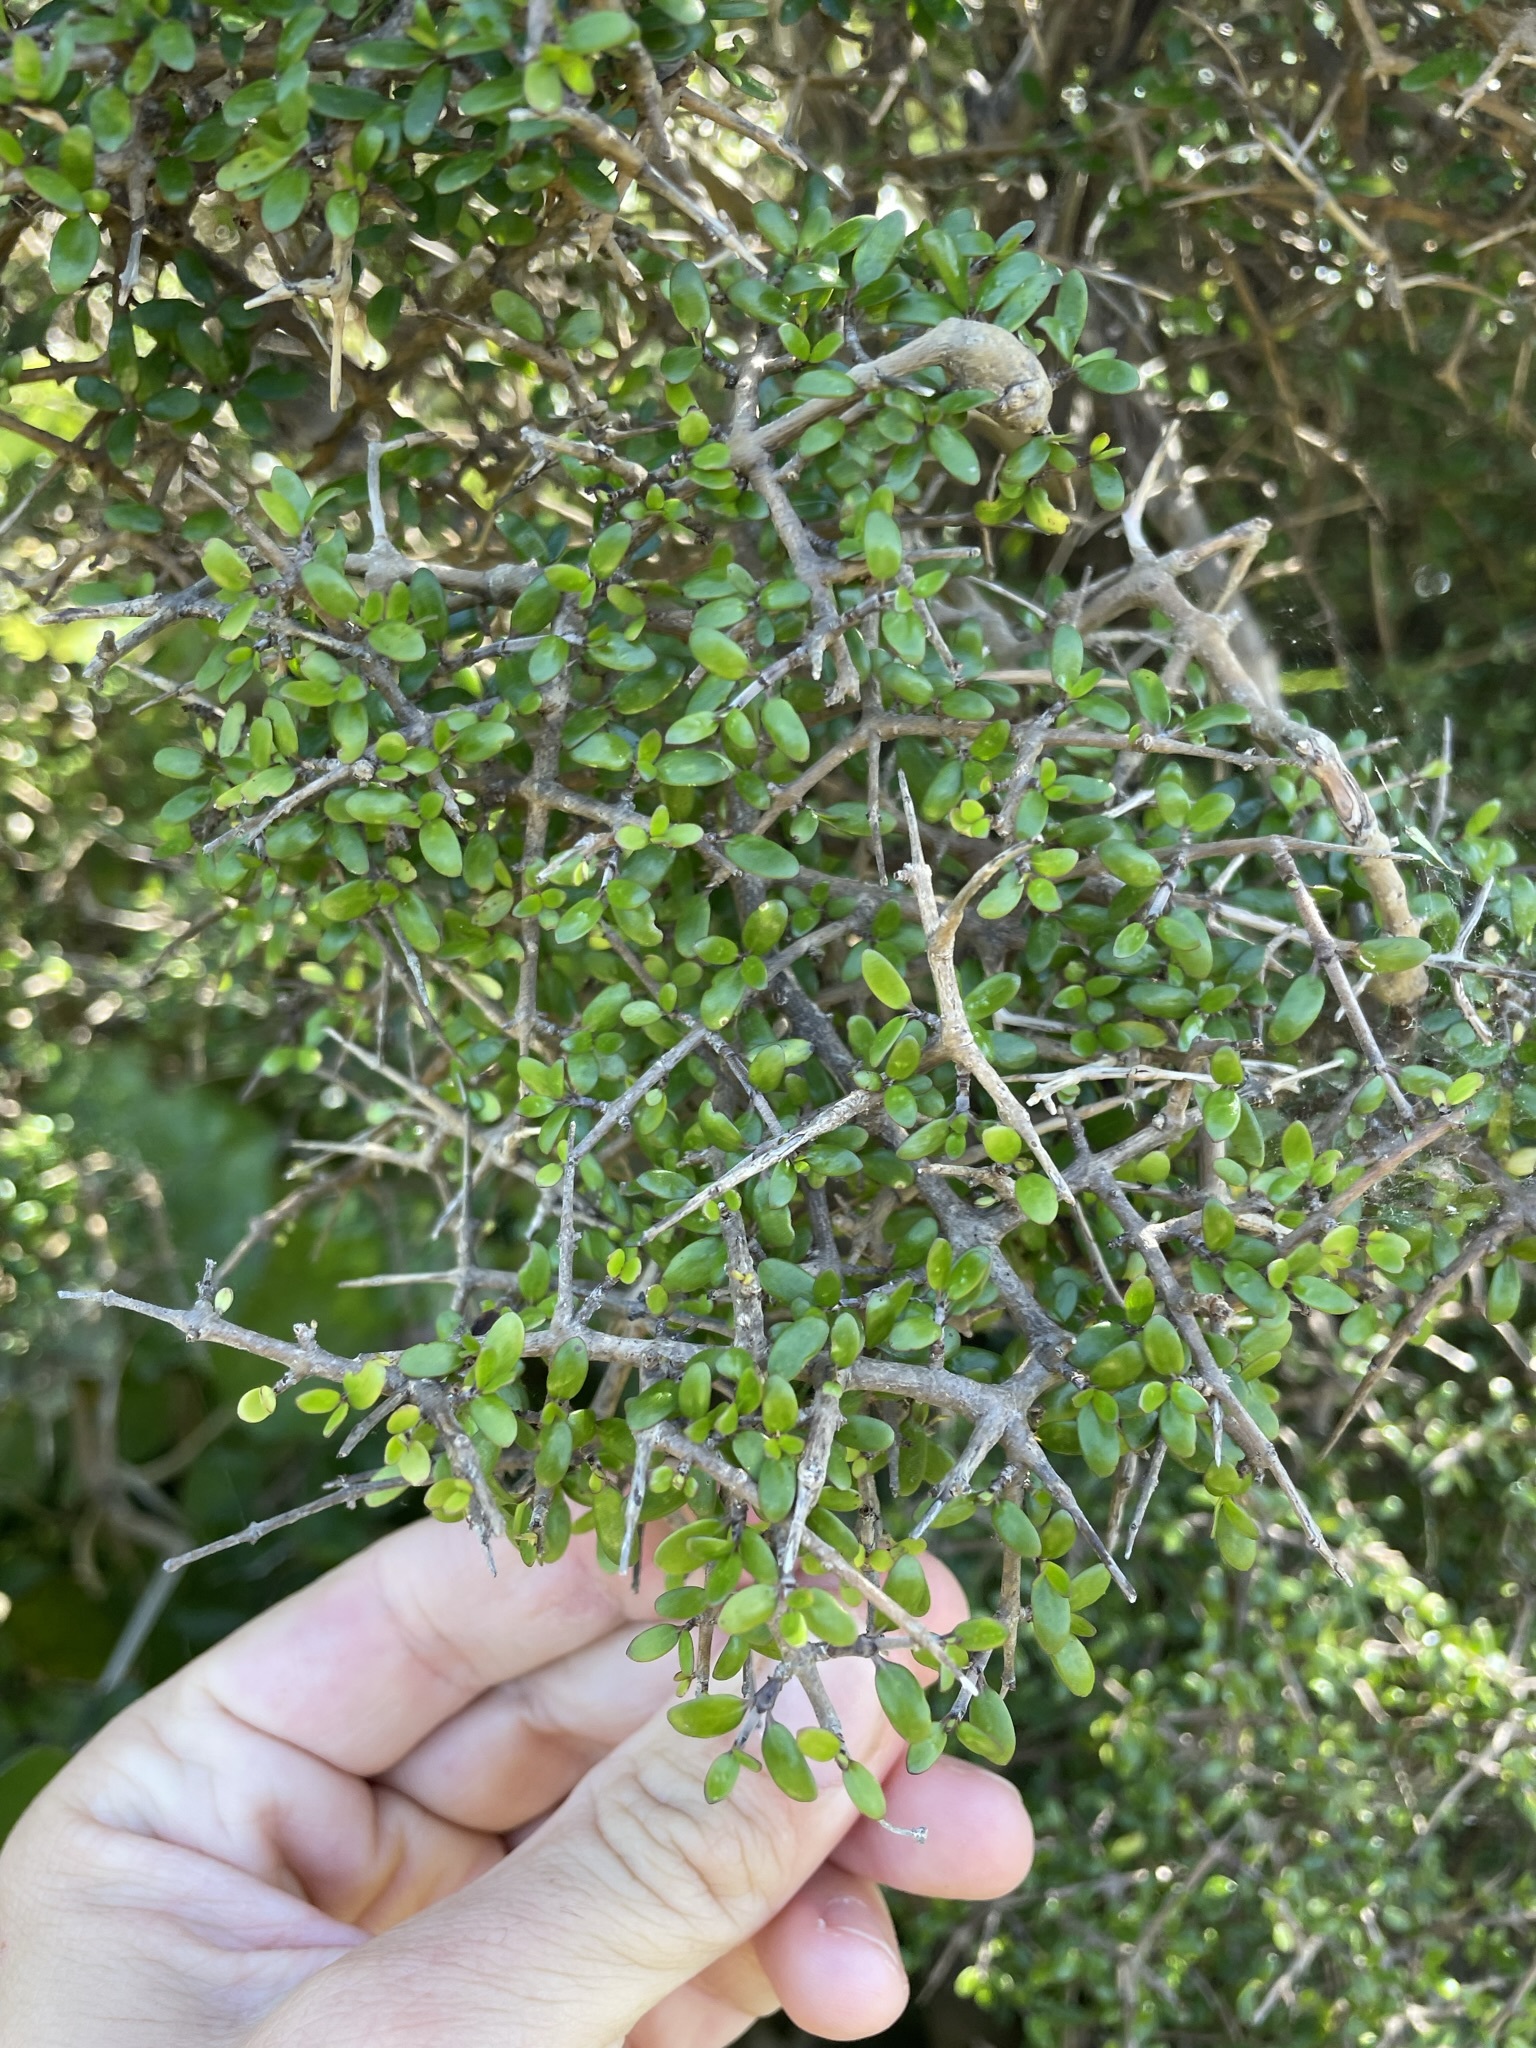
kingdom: Plantae
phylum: Tracheophyta
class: Magnoliopsida
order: Gentianales
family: Rubiaceae
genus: Coprosma
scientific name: Coprosma propinqua
